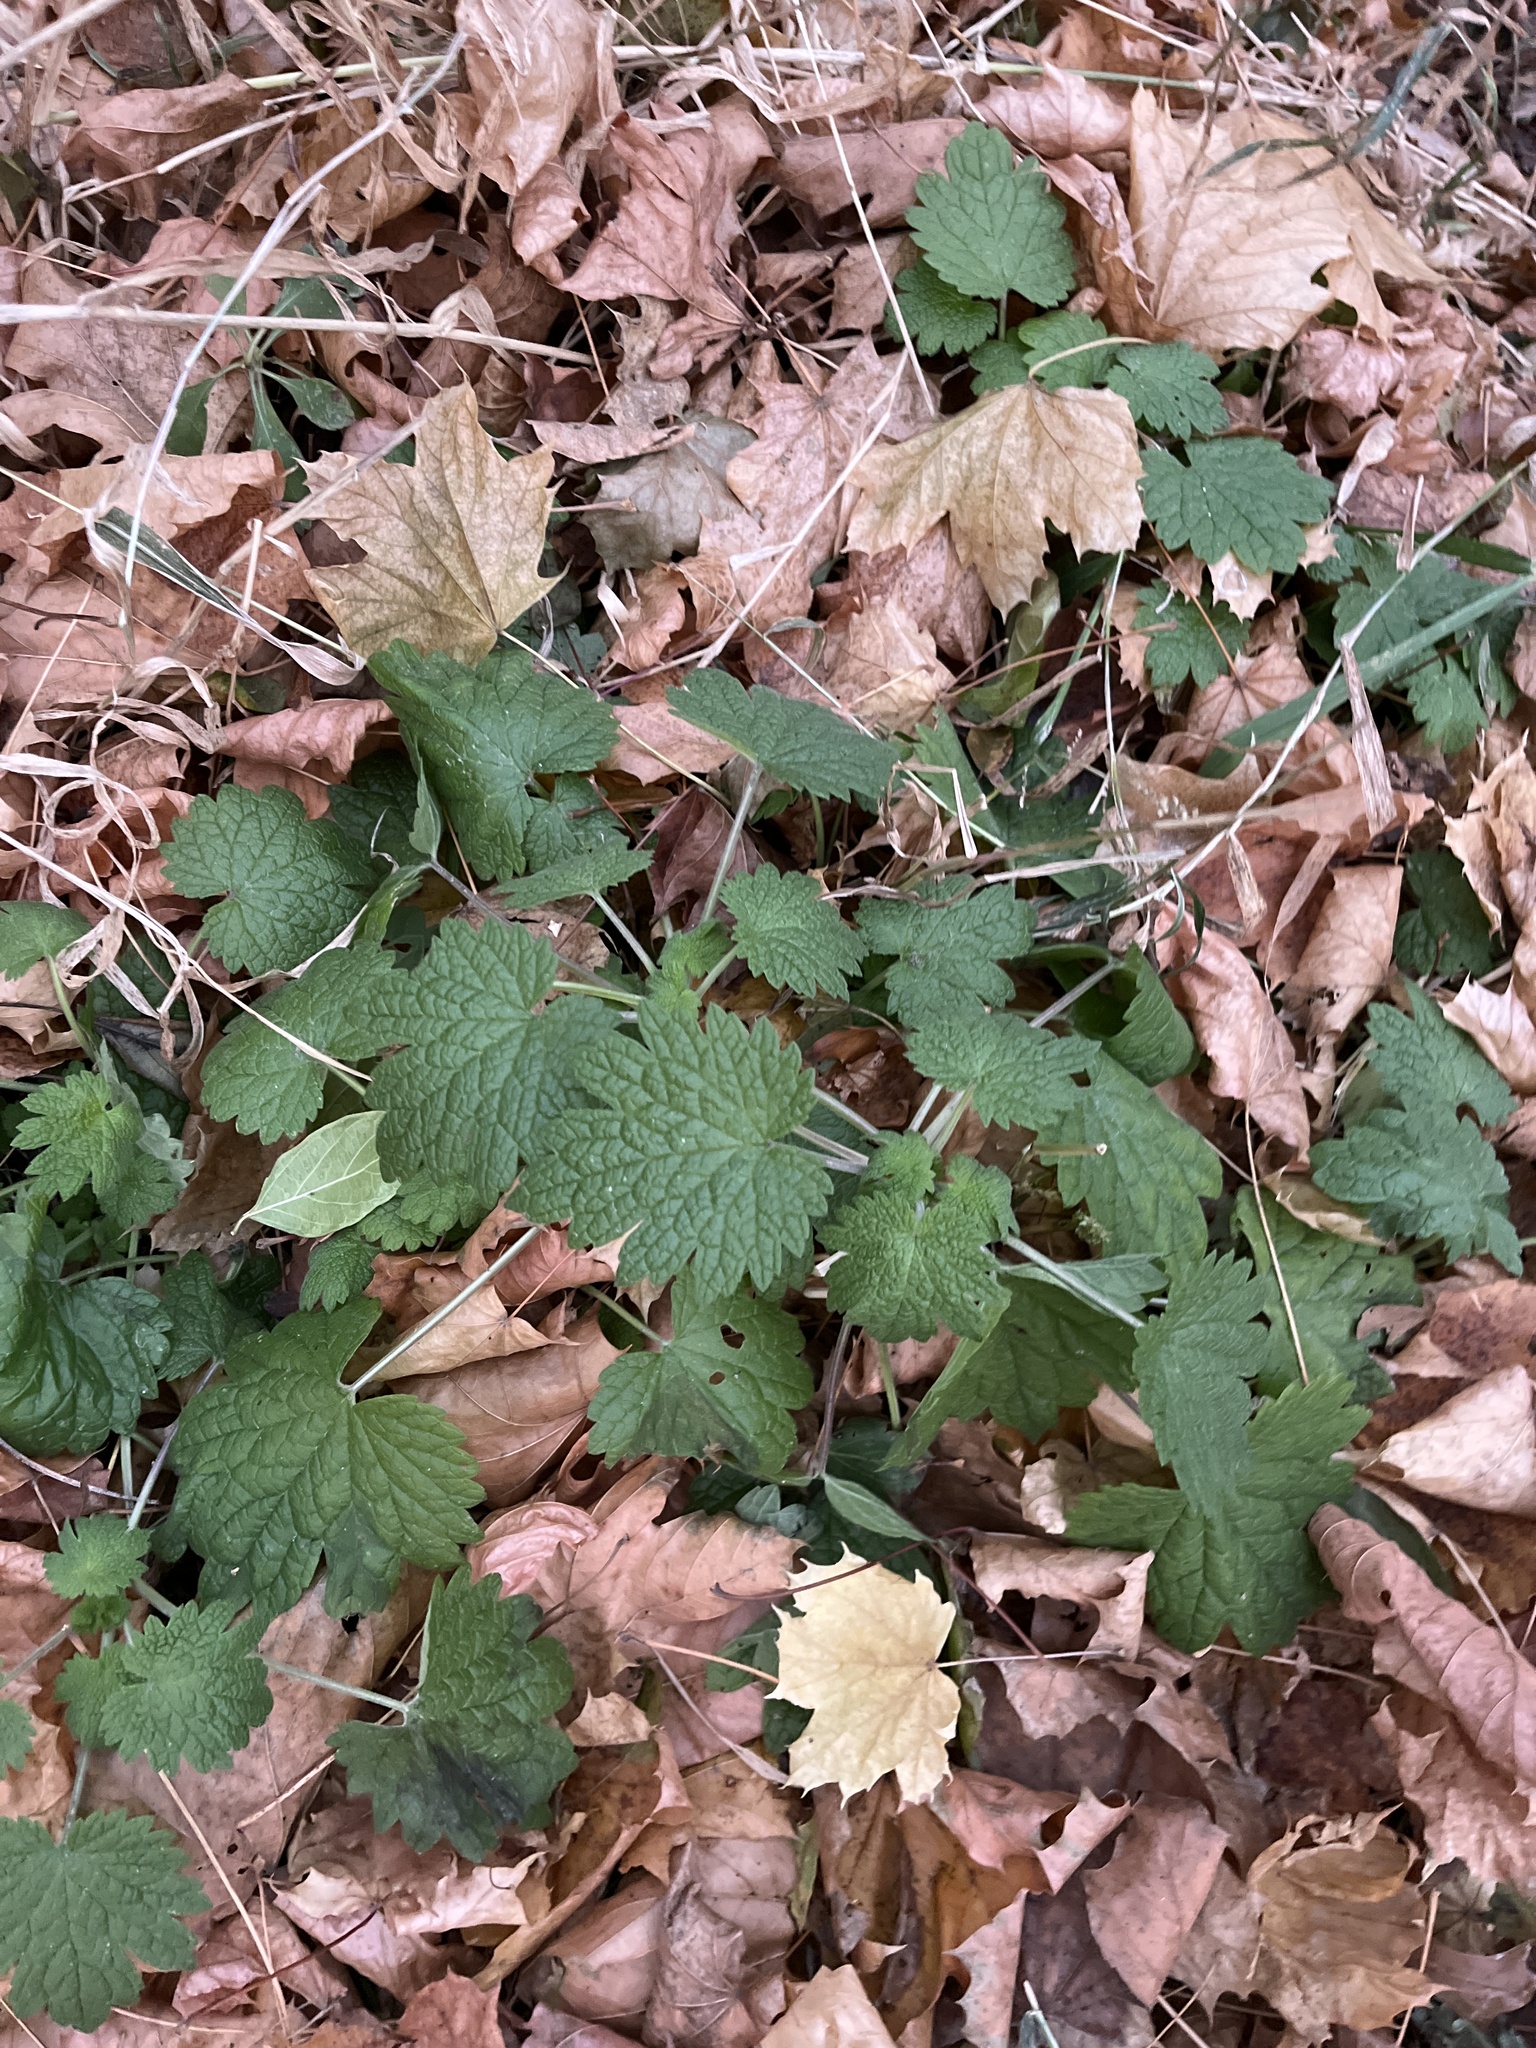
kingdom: Plantae
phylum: Tracheophyta
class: Magnoliopsida
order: Lamiales
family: Lamiaceae
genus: Leonurus
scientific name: Leonurus cardiaca
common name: Motherwort
